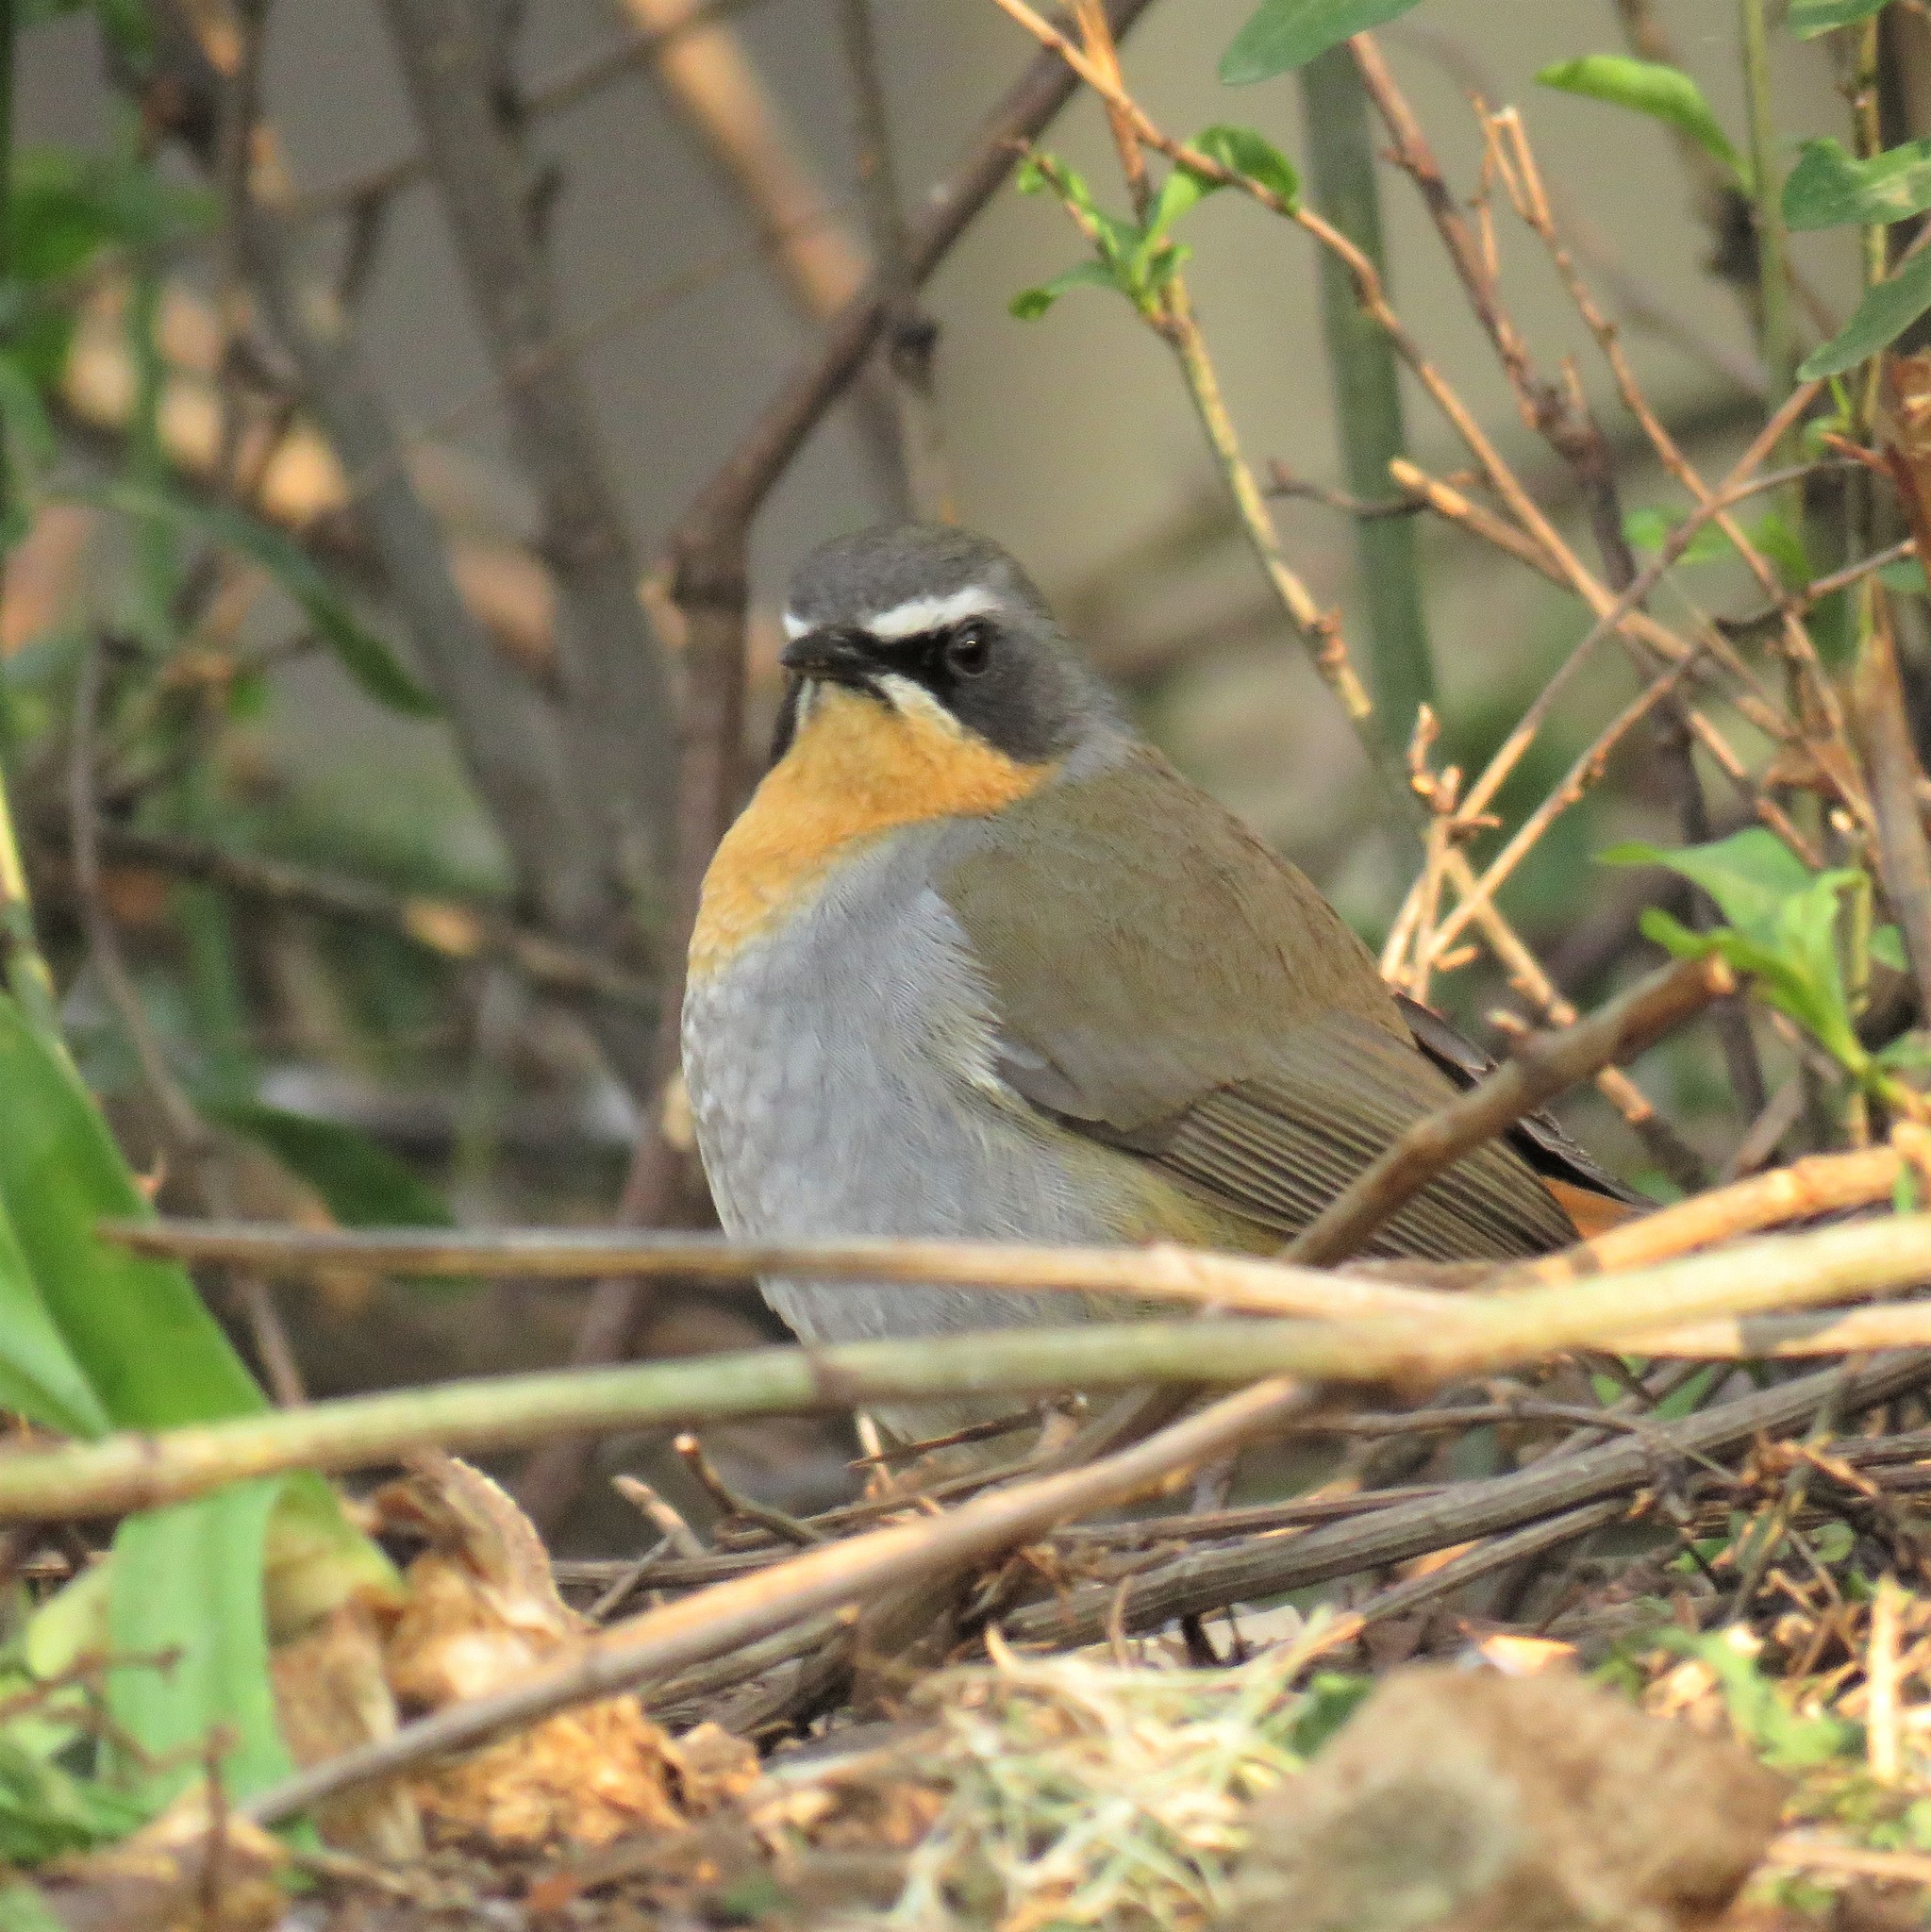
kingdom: Animalia
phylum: Chordata
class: Aves
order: Passeriformes
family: Muscicapidae
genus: Cossypha
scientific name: Cossypha caffra
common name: Cape robin-chat
